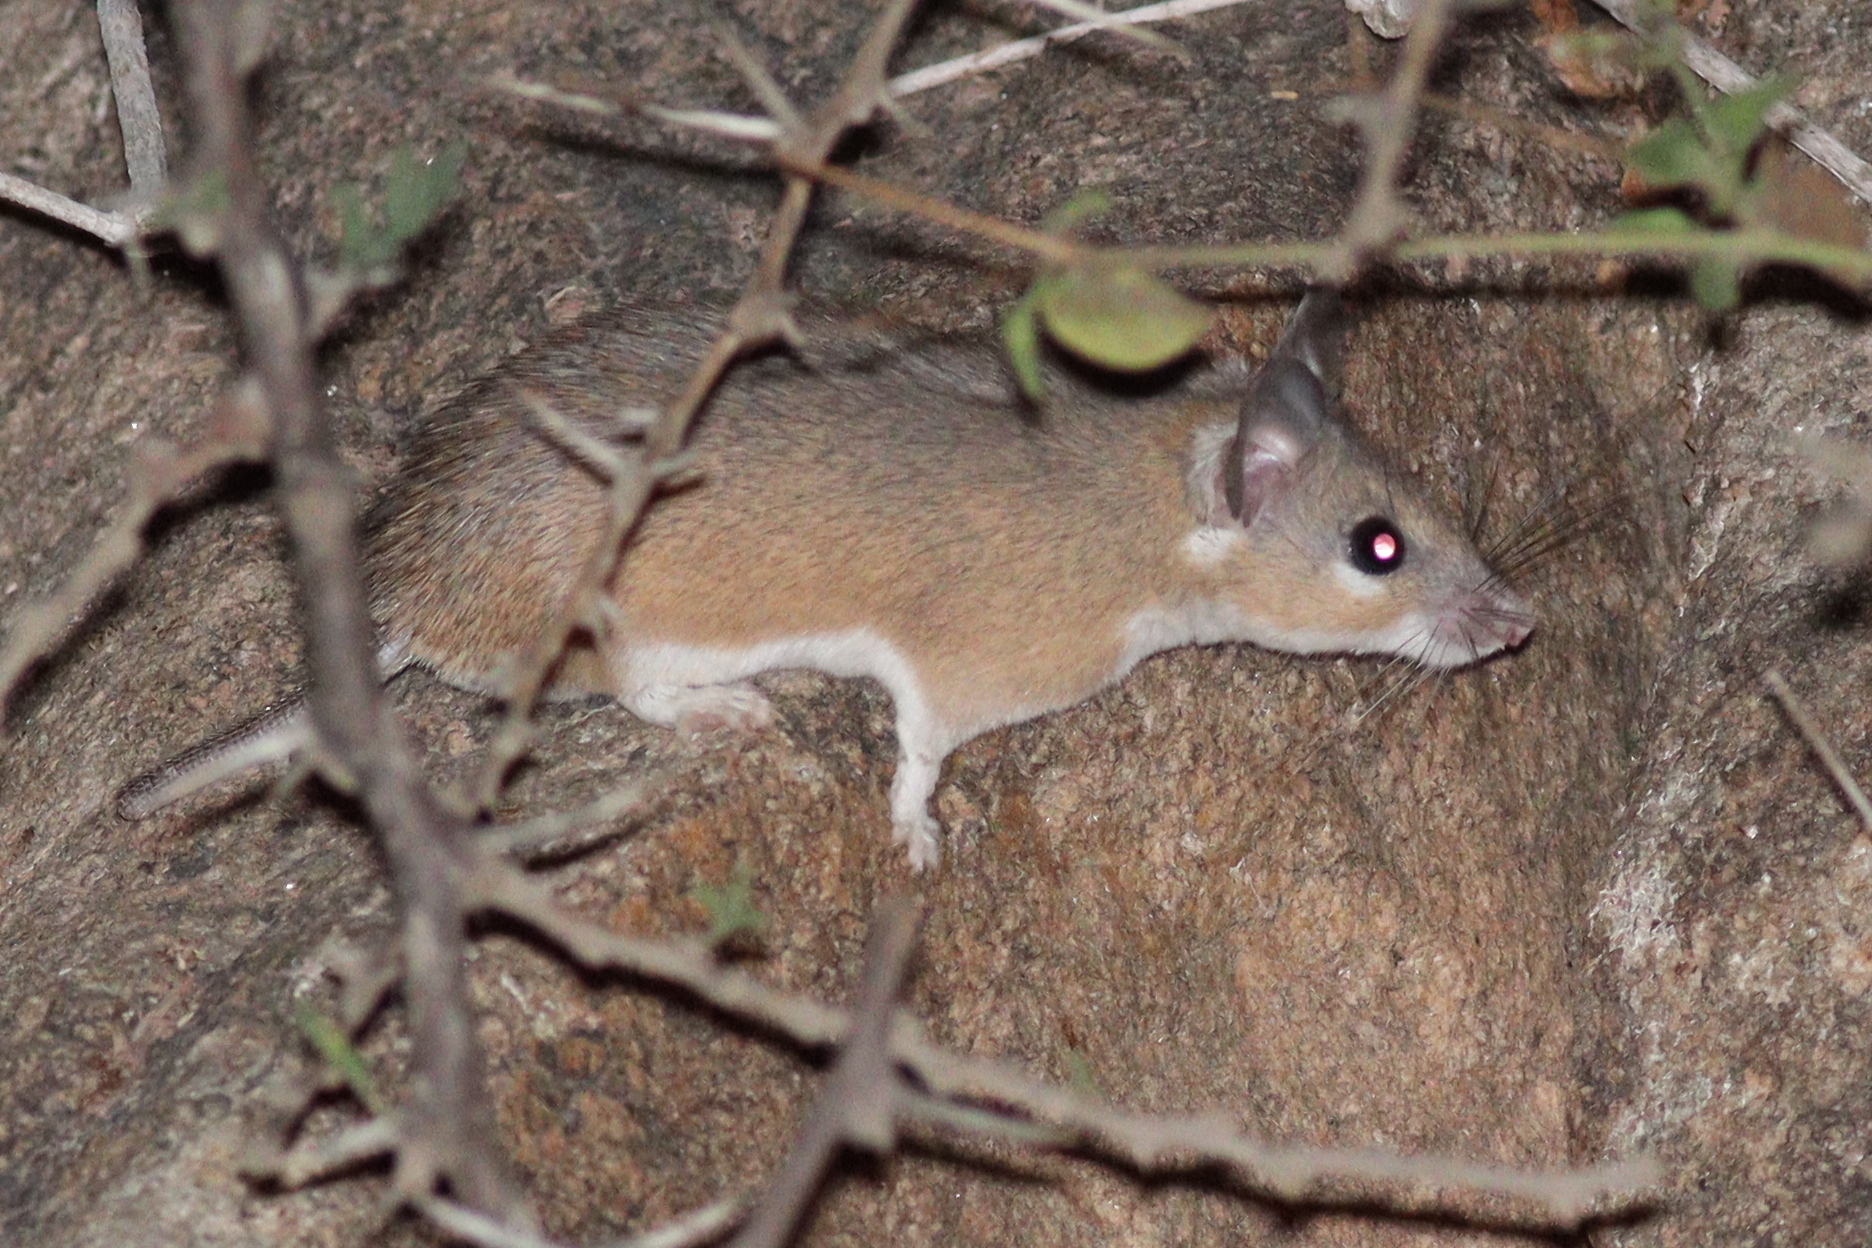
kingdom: Animalia
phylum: Chordata
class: Mammalia
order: Rodentia
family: Muridae
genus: Acomys
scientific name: Acomys dimidiatus
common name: Eastern spiny mouse
